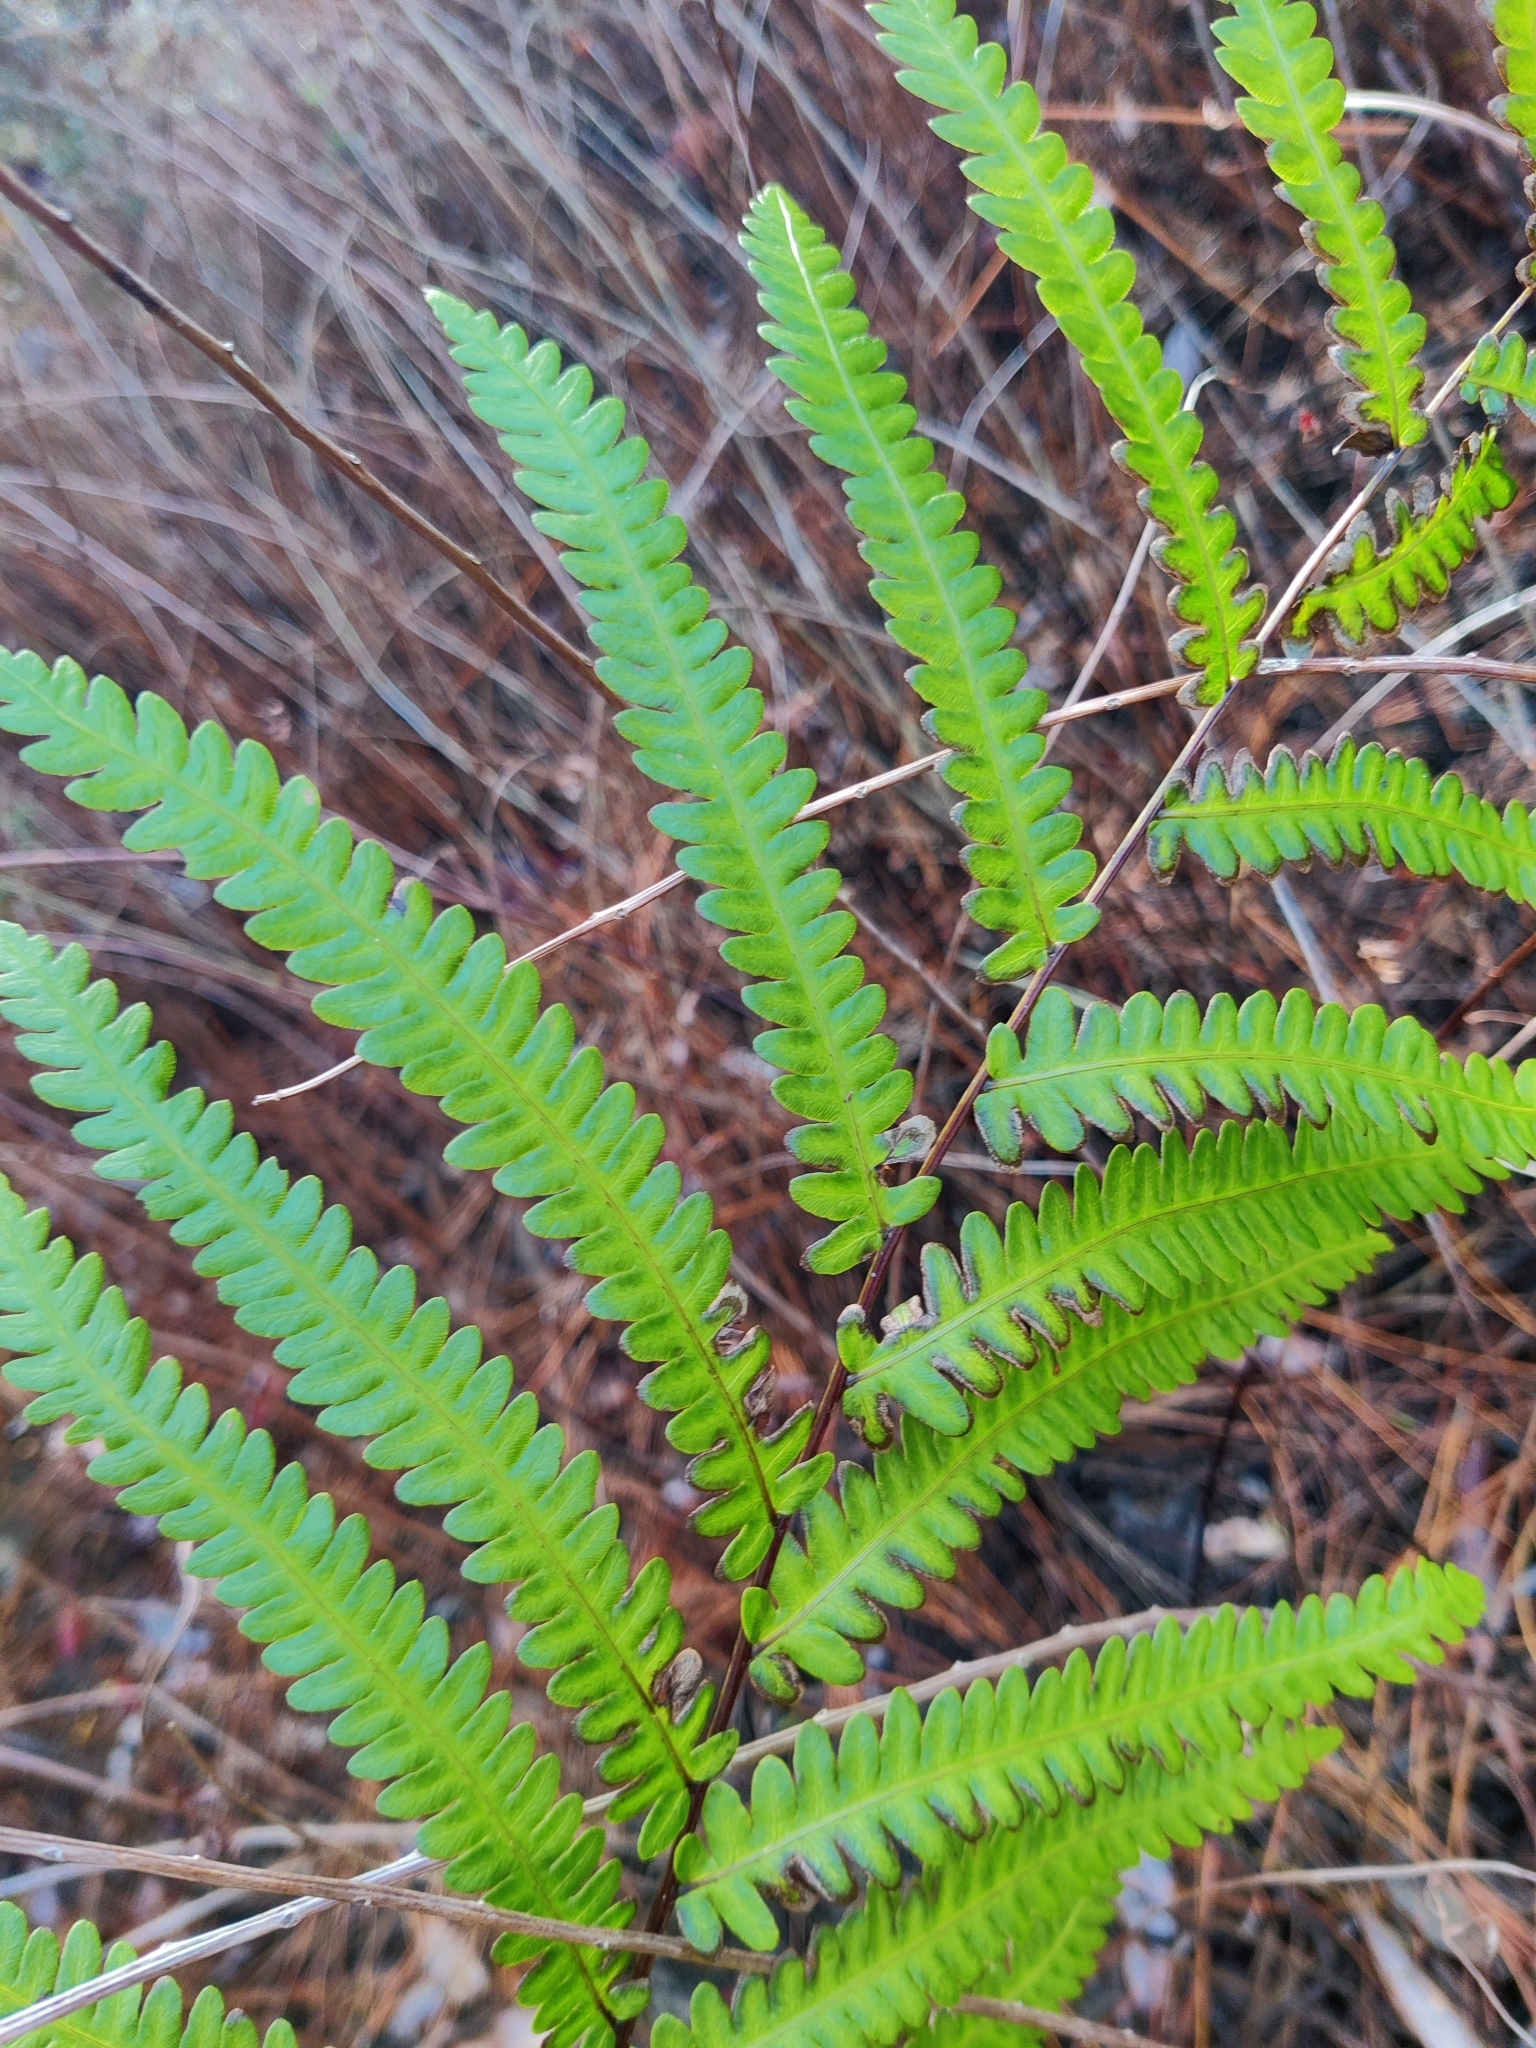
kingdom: Plantae
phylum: Tracheophyta
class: Polypodiopsida
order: Polypodiales
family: Blechnaceae
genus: Anchistea
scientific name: Anchistea virginica
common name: Virginia chain fern
